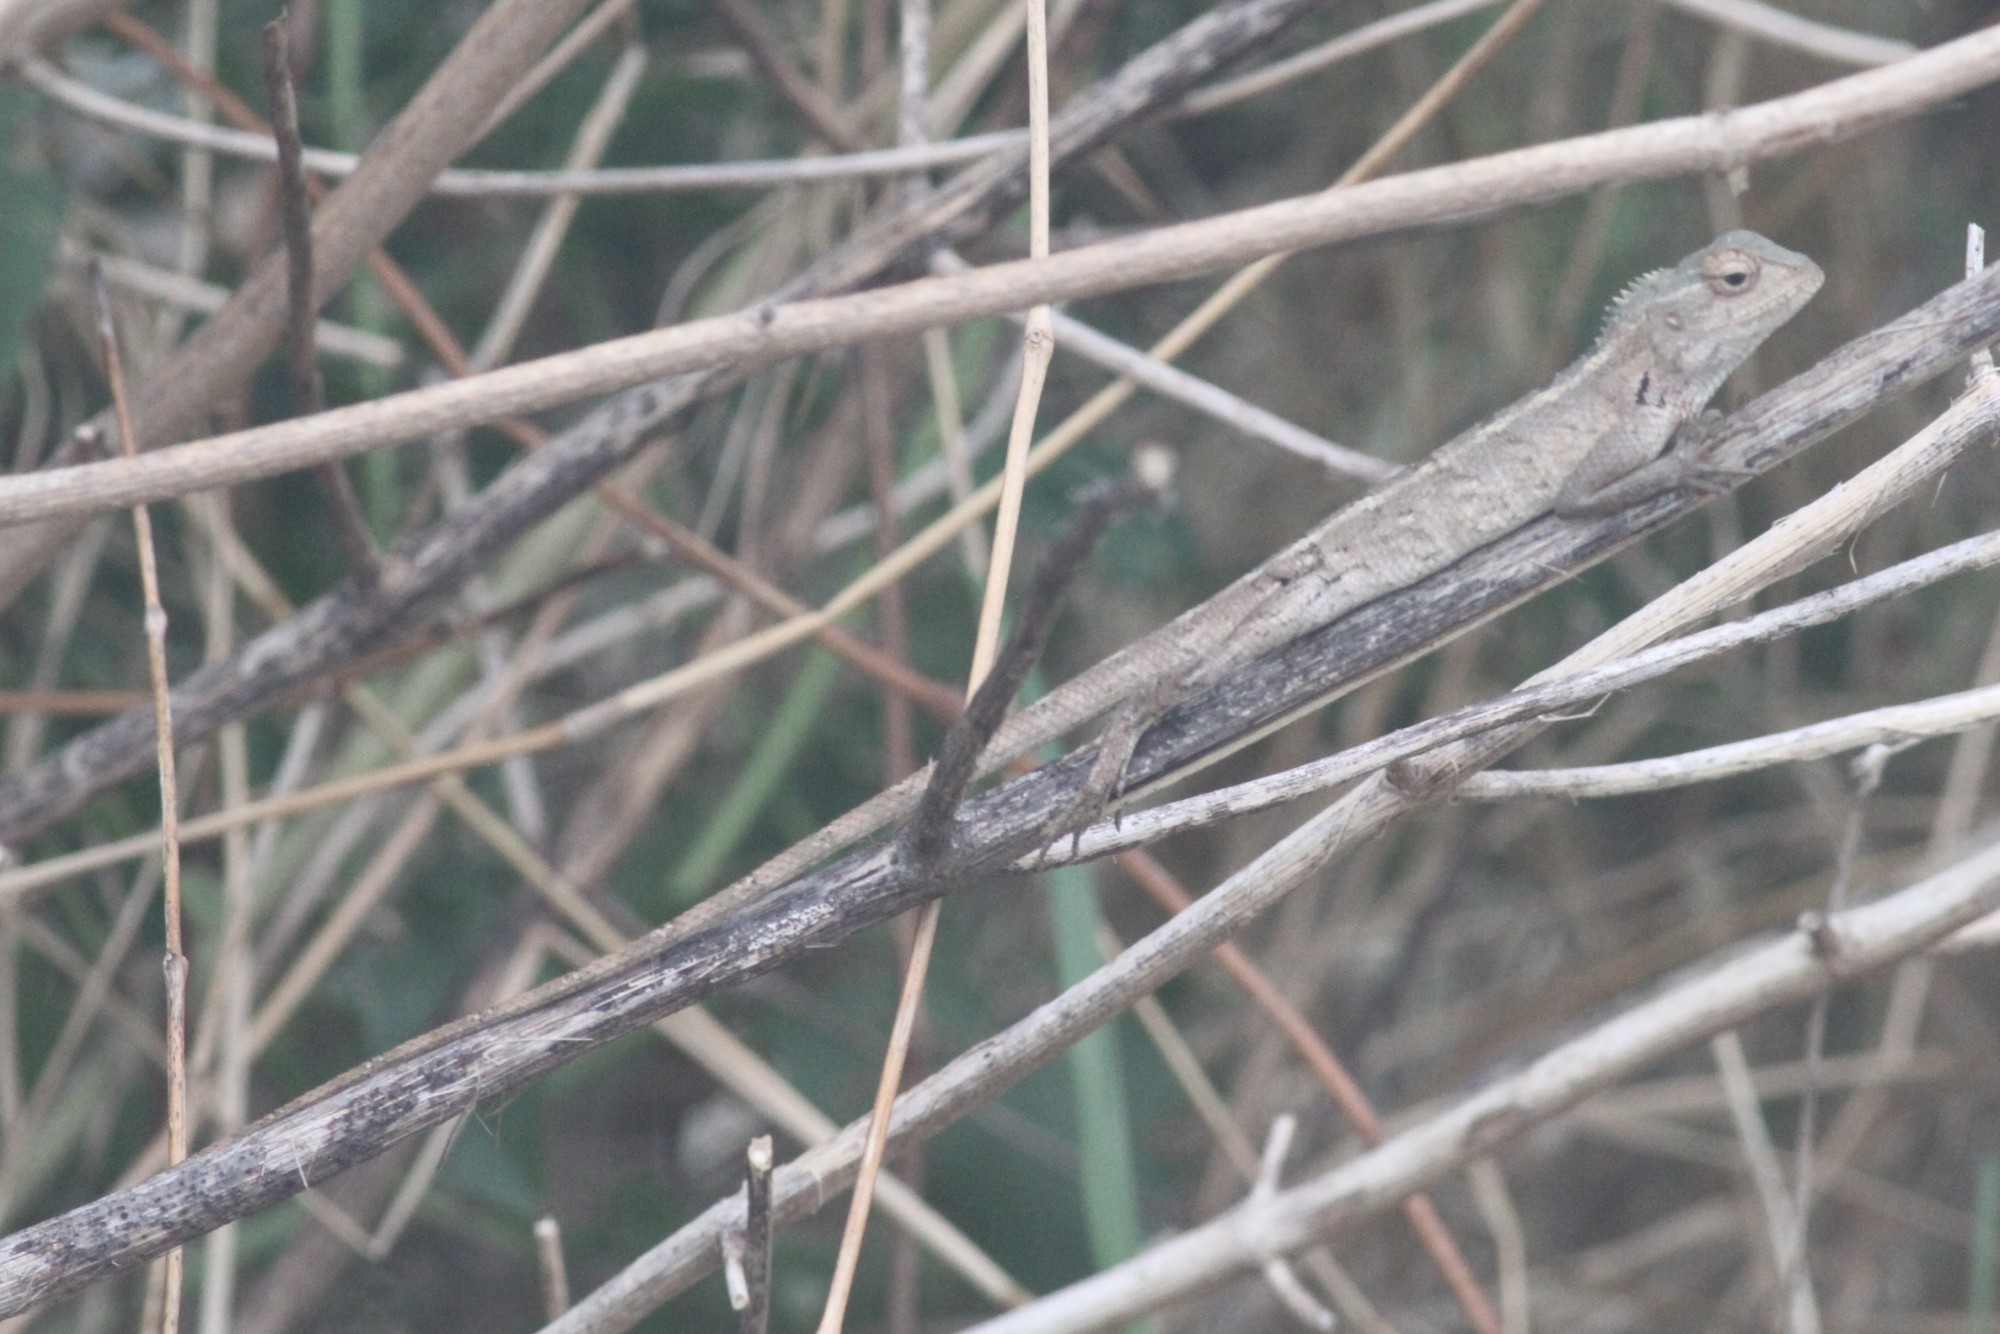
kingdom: Animalia
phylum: Chordata
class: Squamata
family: Agamidae
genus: Calotes
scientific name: Calotes versicolor
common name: Oriental garden lizard
